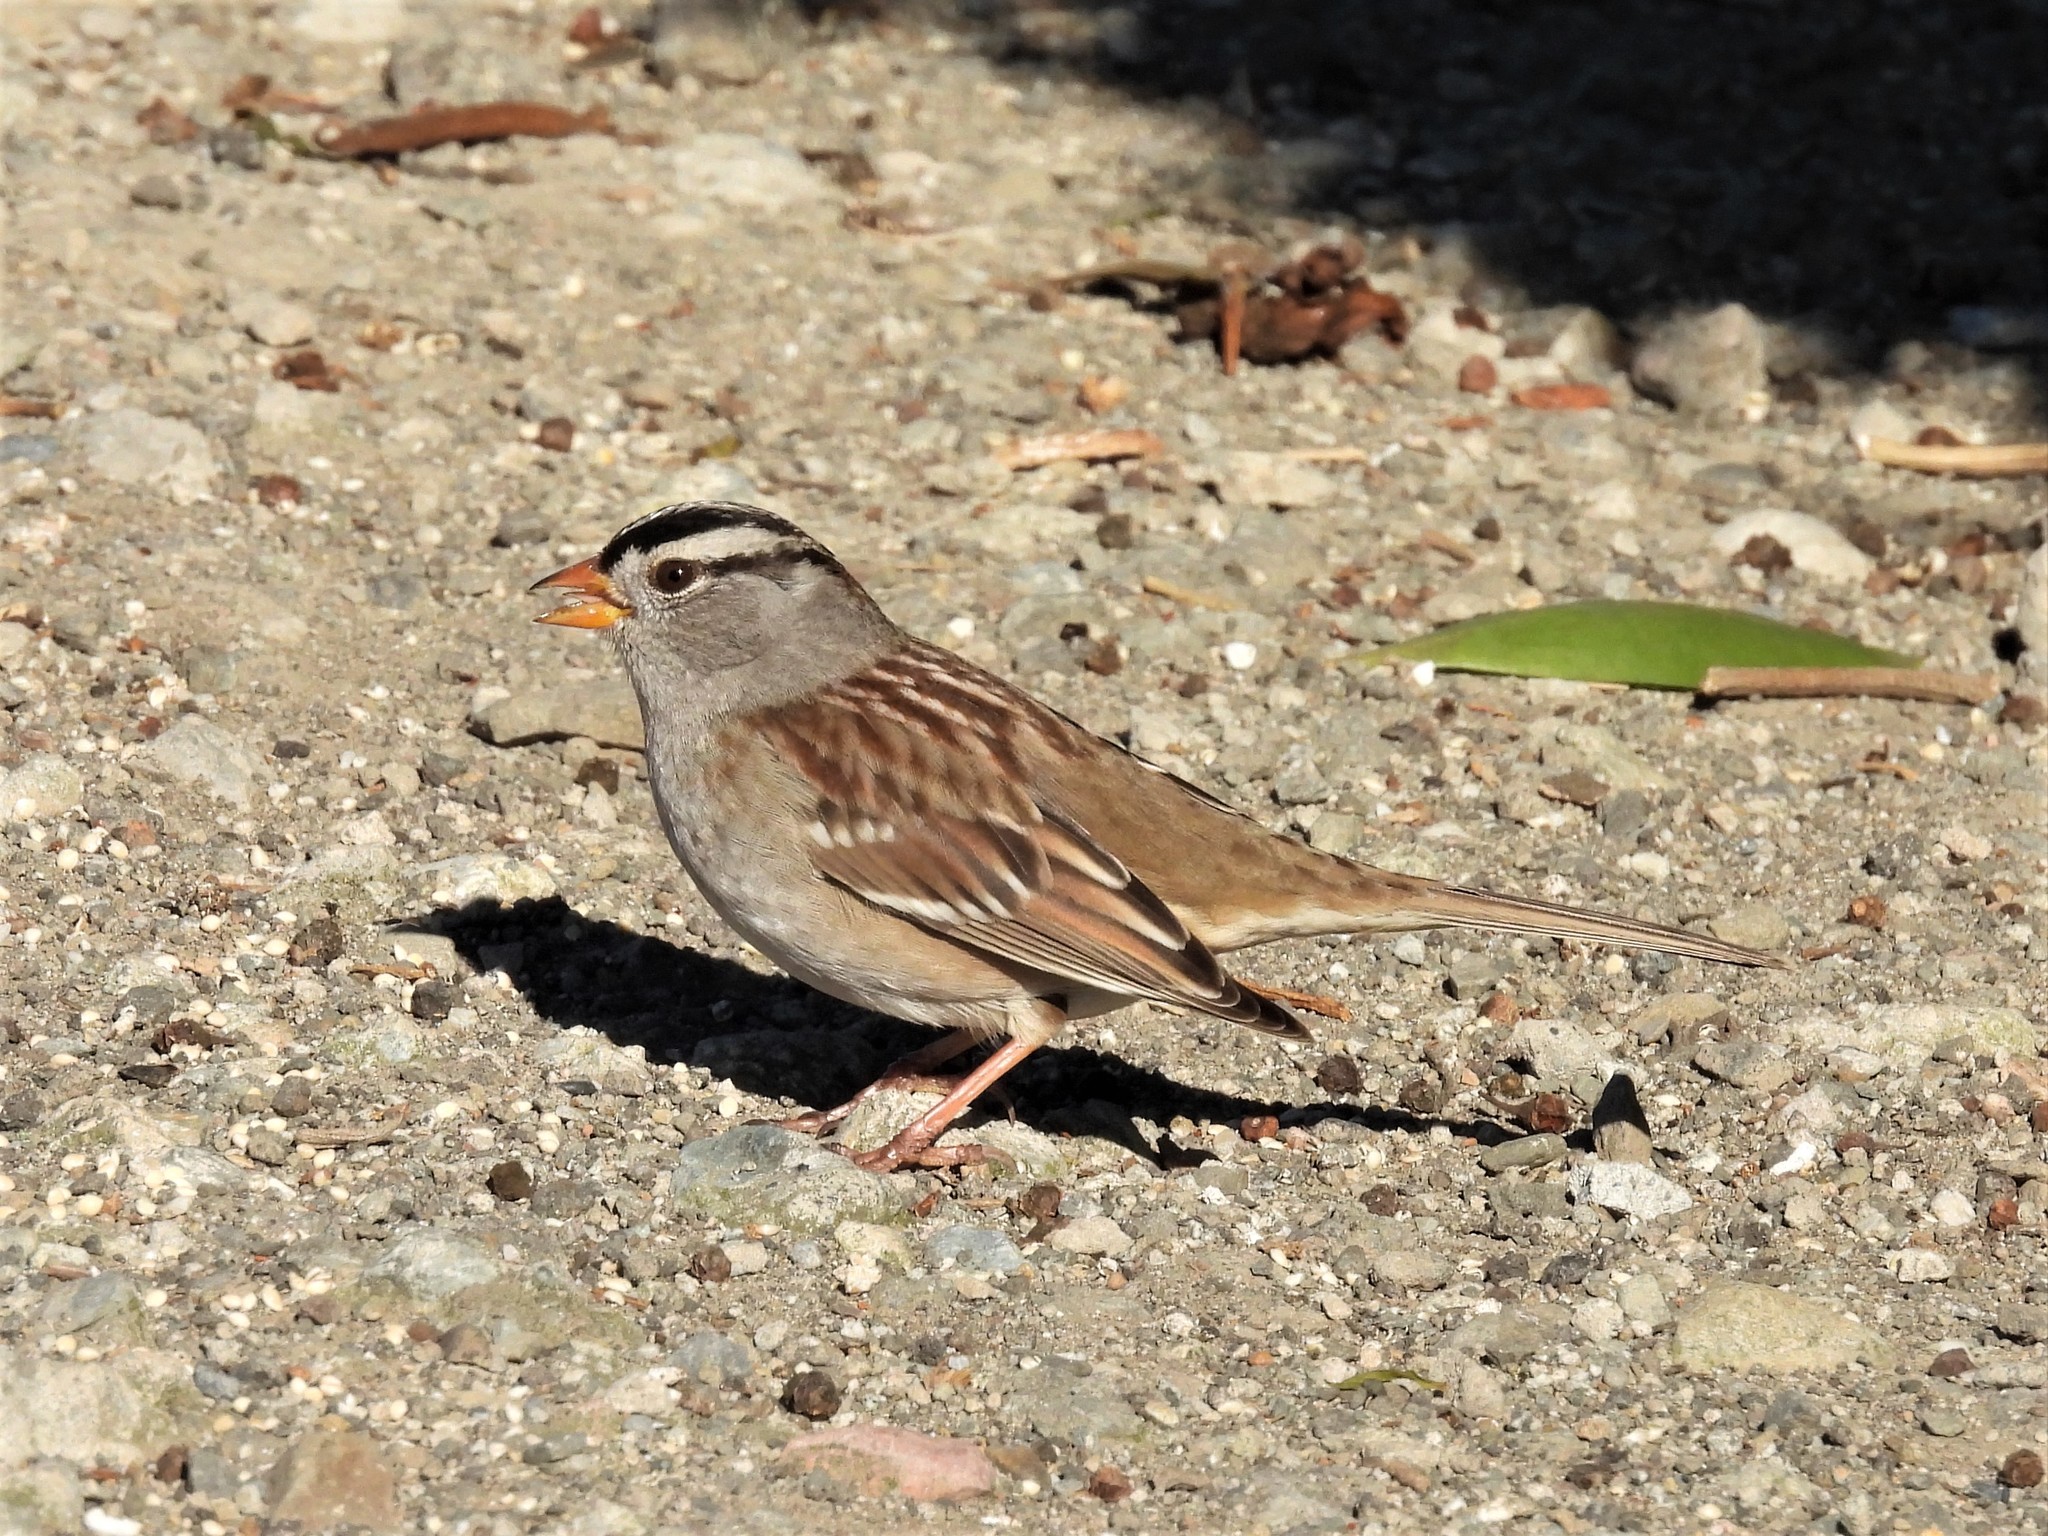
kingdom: Animalia
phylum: Chordata
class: Aves
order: Passeriformes
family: Passerellidae
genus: Zonotrichia
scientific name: Zonotrichia leucophrys
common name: White-crowned sparrow
